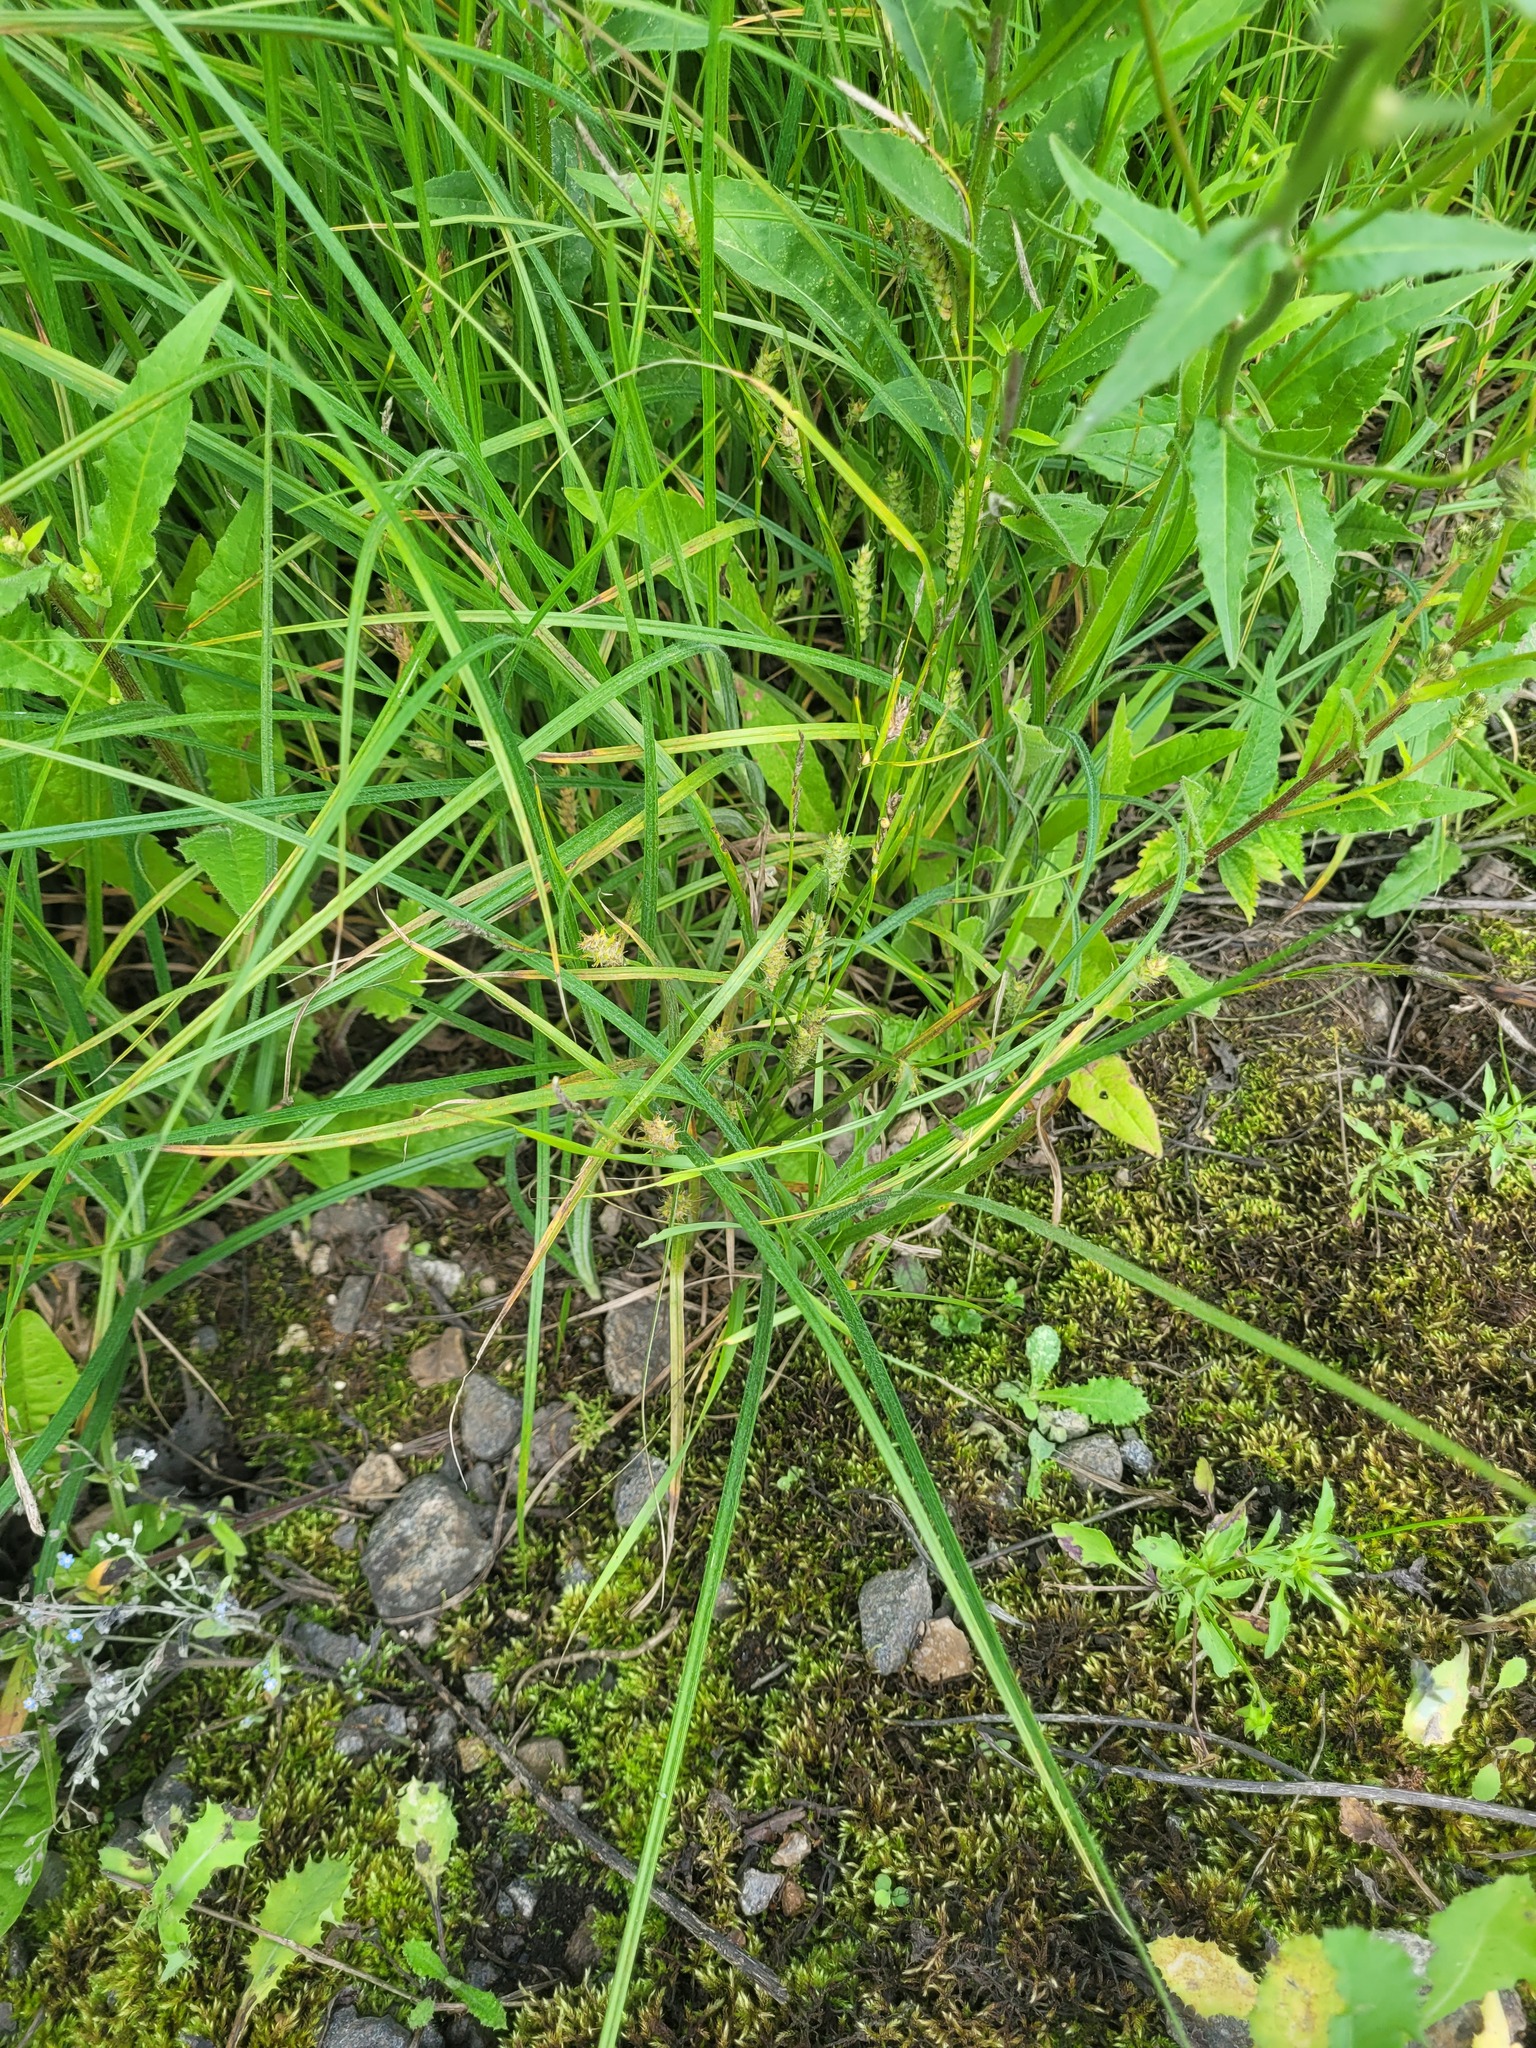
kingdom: Plantae
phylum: Tracheophyta
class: Liliopsida
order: Poales
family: Cyperaceae
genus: Carex
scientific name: Carex hirta
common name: Hairy sedge
